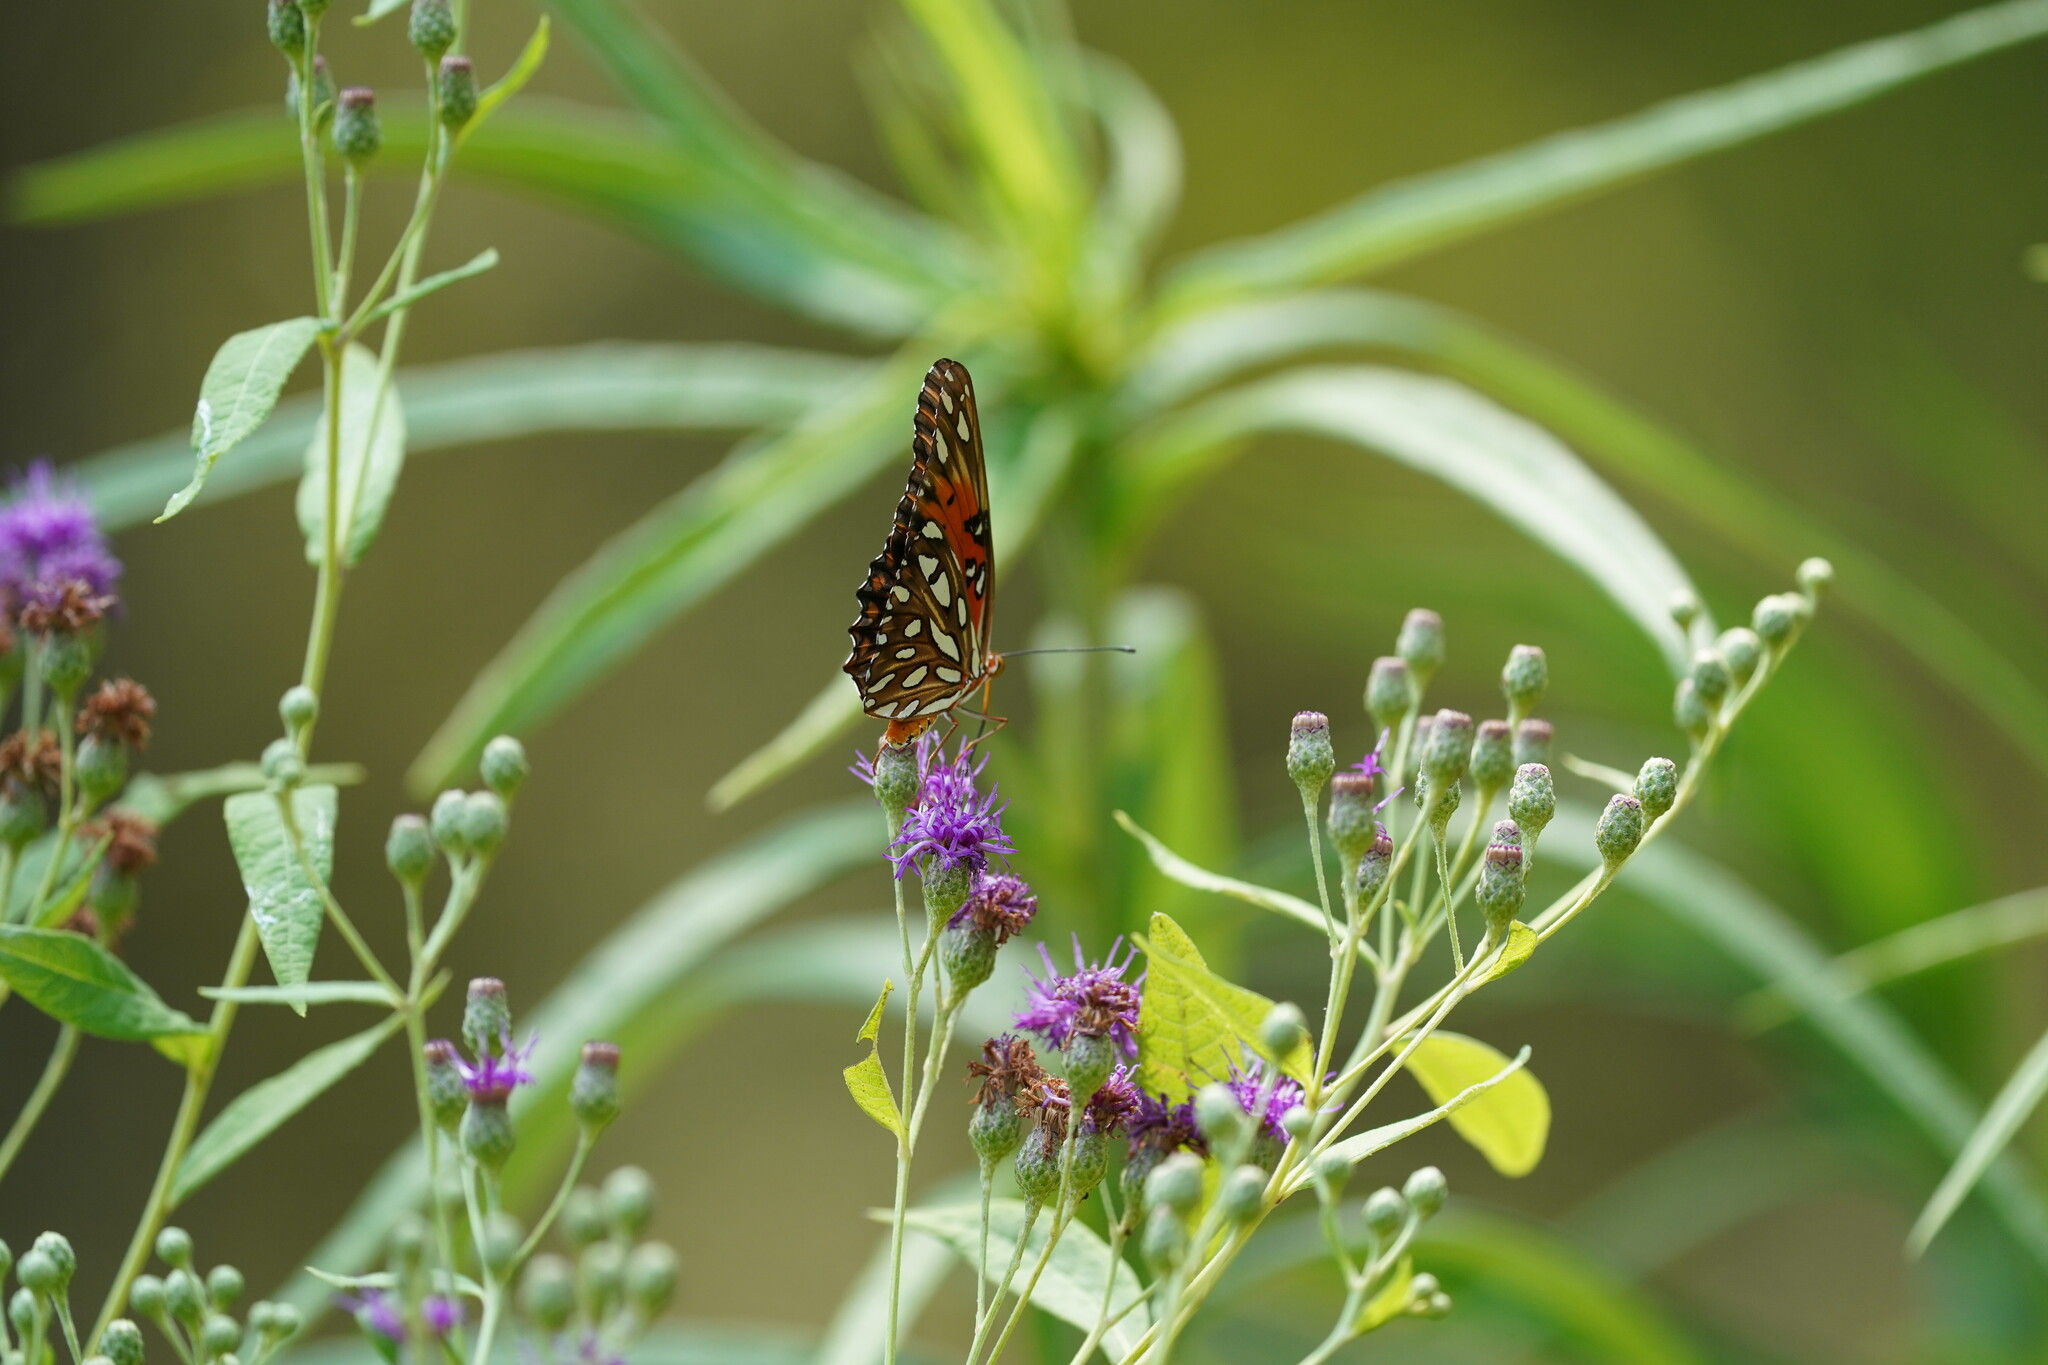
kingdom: Animalia
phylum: Arthropoda
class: Insecta
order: Lepidoptera
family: Nymphalidae
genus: Dione
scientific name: Dione vanillae
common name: Gulf fritillary
